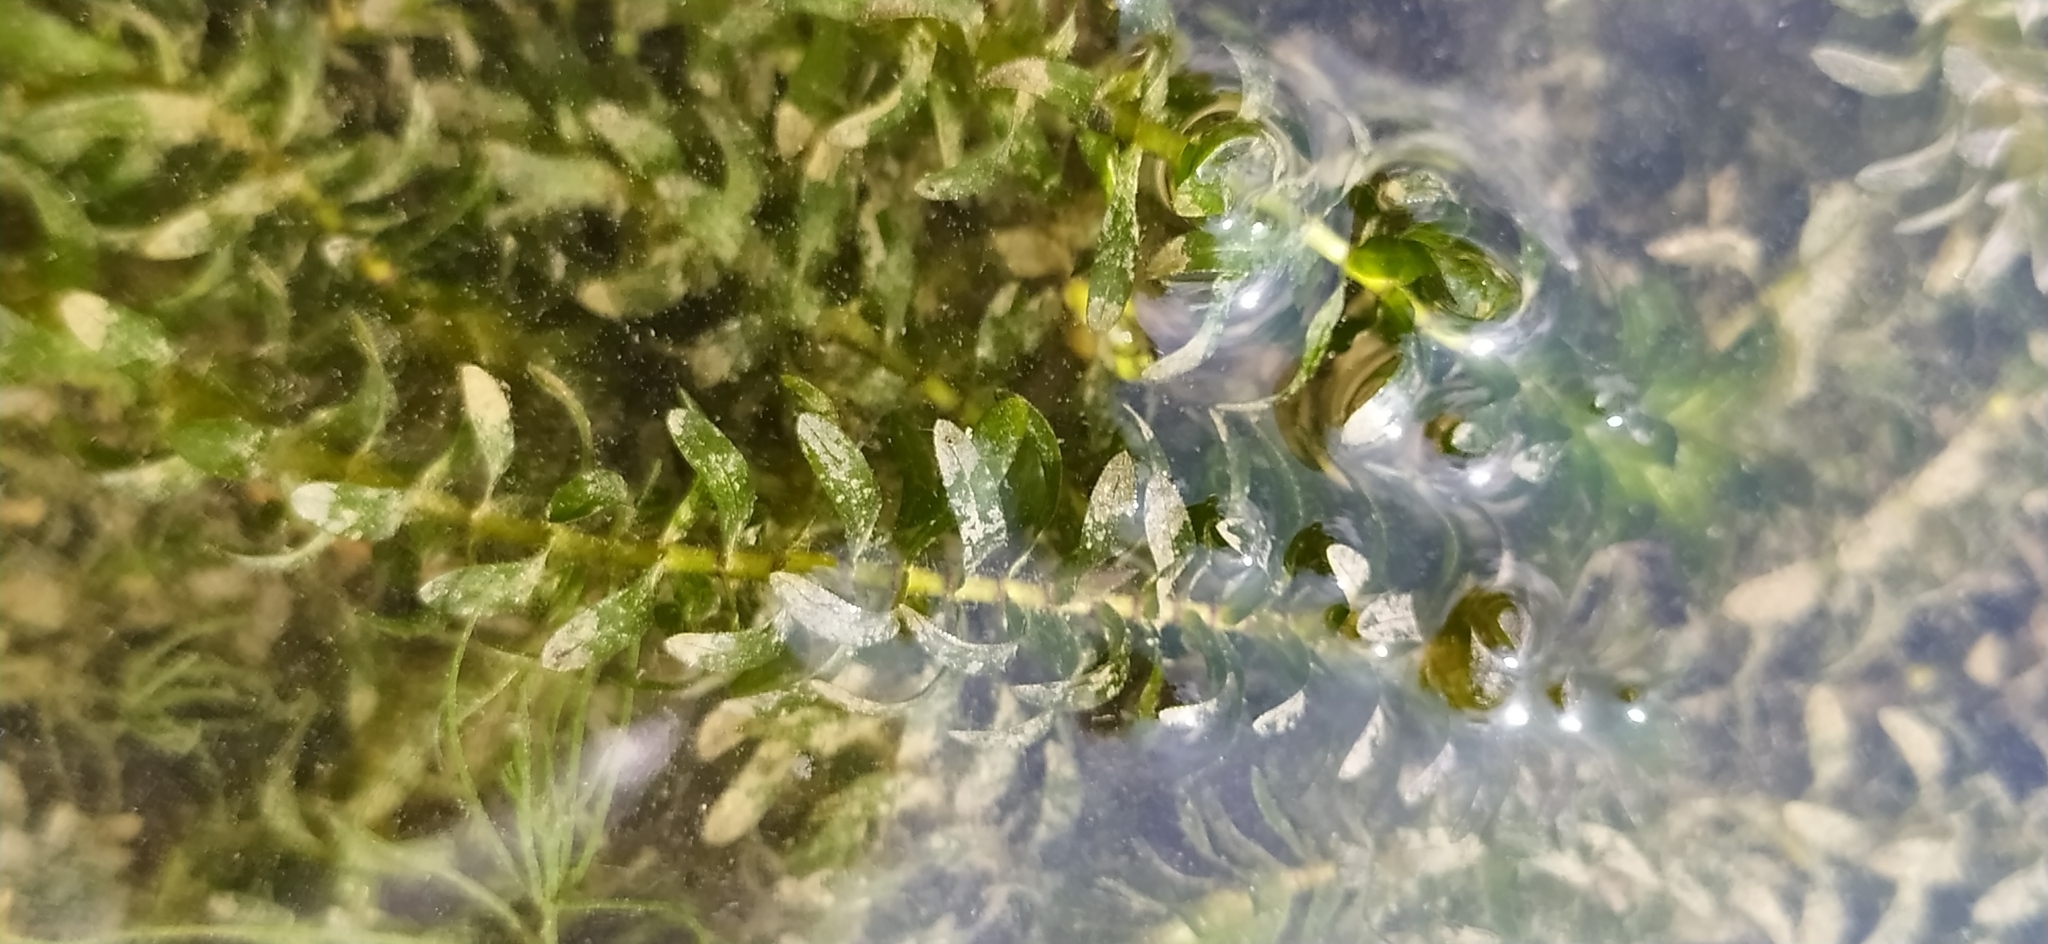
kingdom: Plantae
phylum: Tracheophyta
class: Liliopsida
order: Alismatales
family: Hydrocharitaceae
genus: Elodea
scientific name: Elodea canadensis
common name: Canadian waterweed
